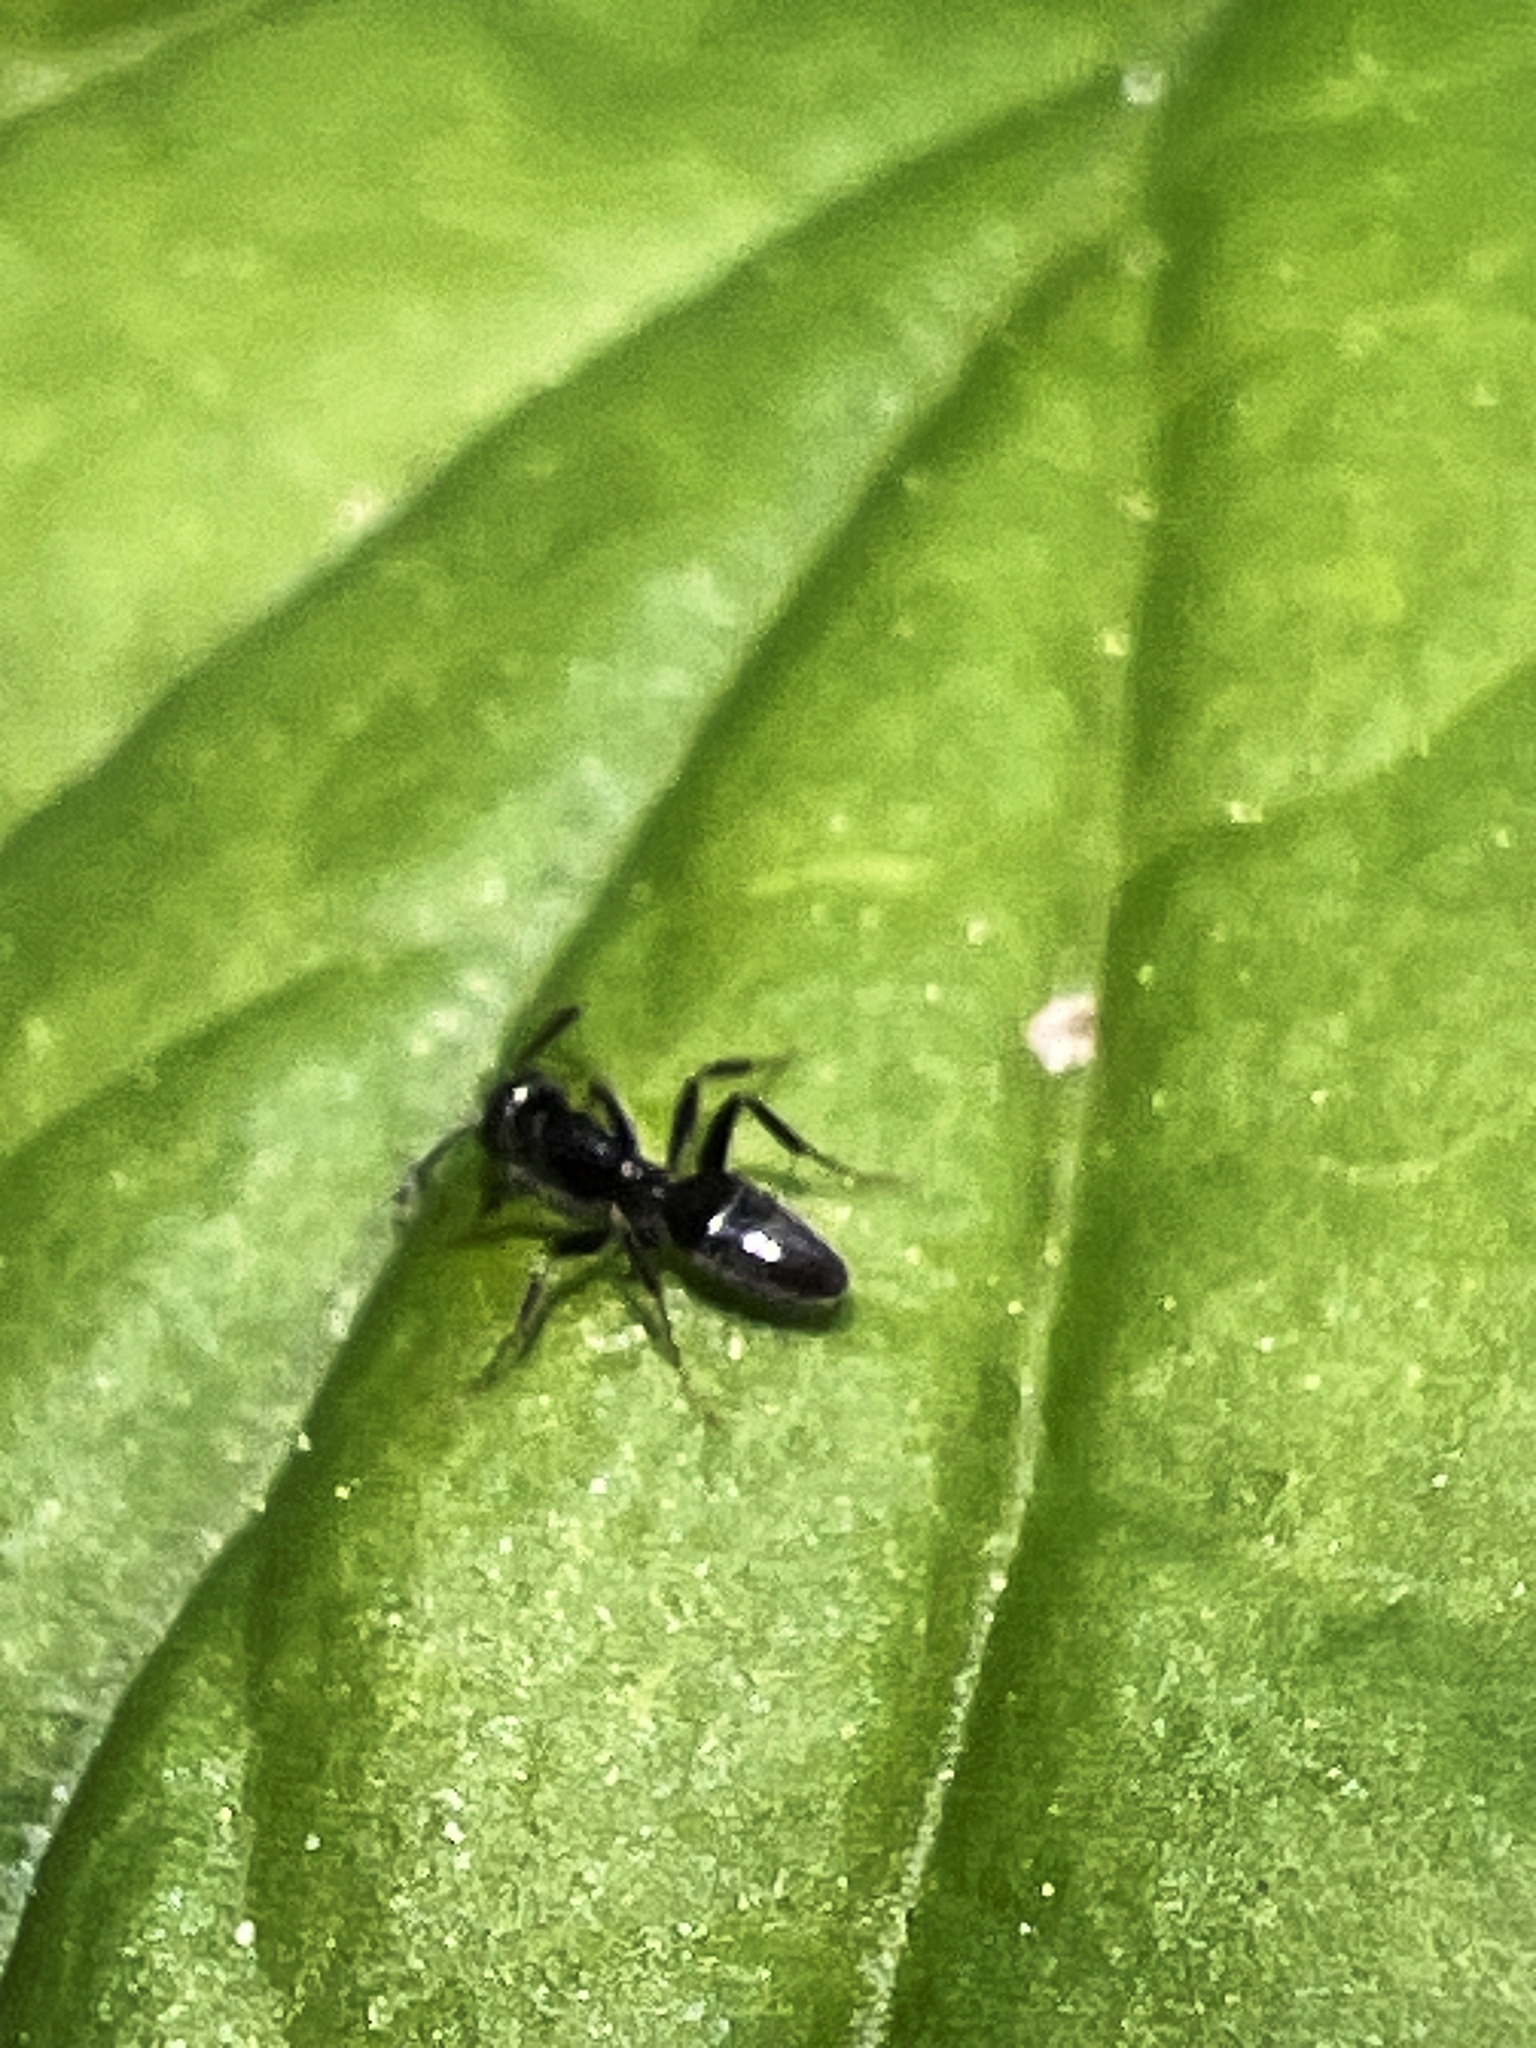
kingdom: Animalia
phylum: Arthropoda
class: Insecta
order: Hymenoptera
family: Formicidae
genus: Tapinoma
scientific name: Tapinoma sessile
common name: Odorous house ant
